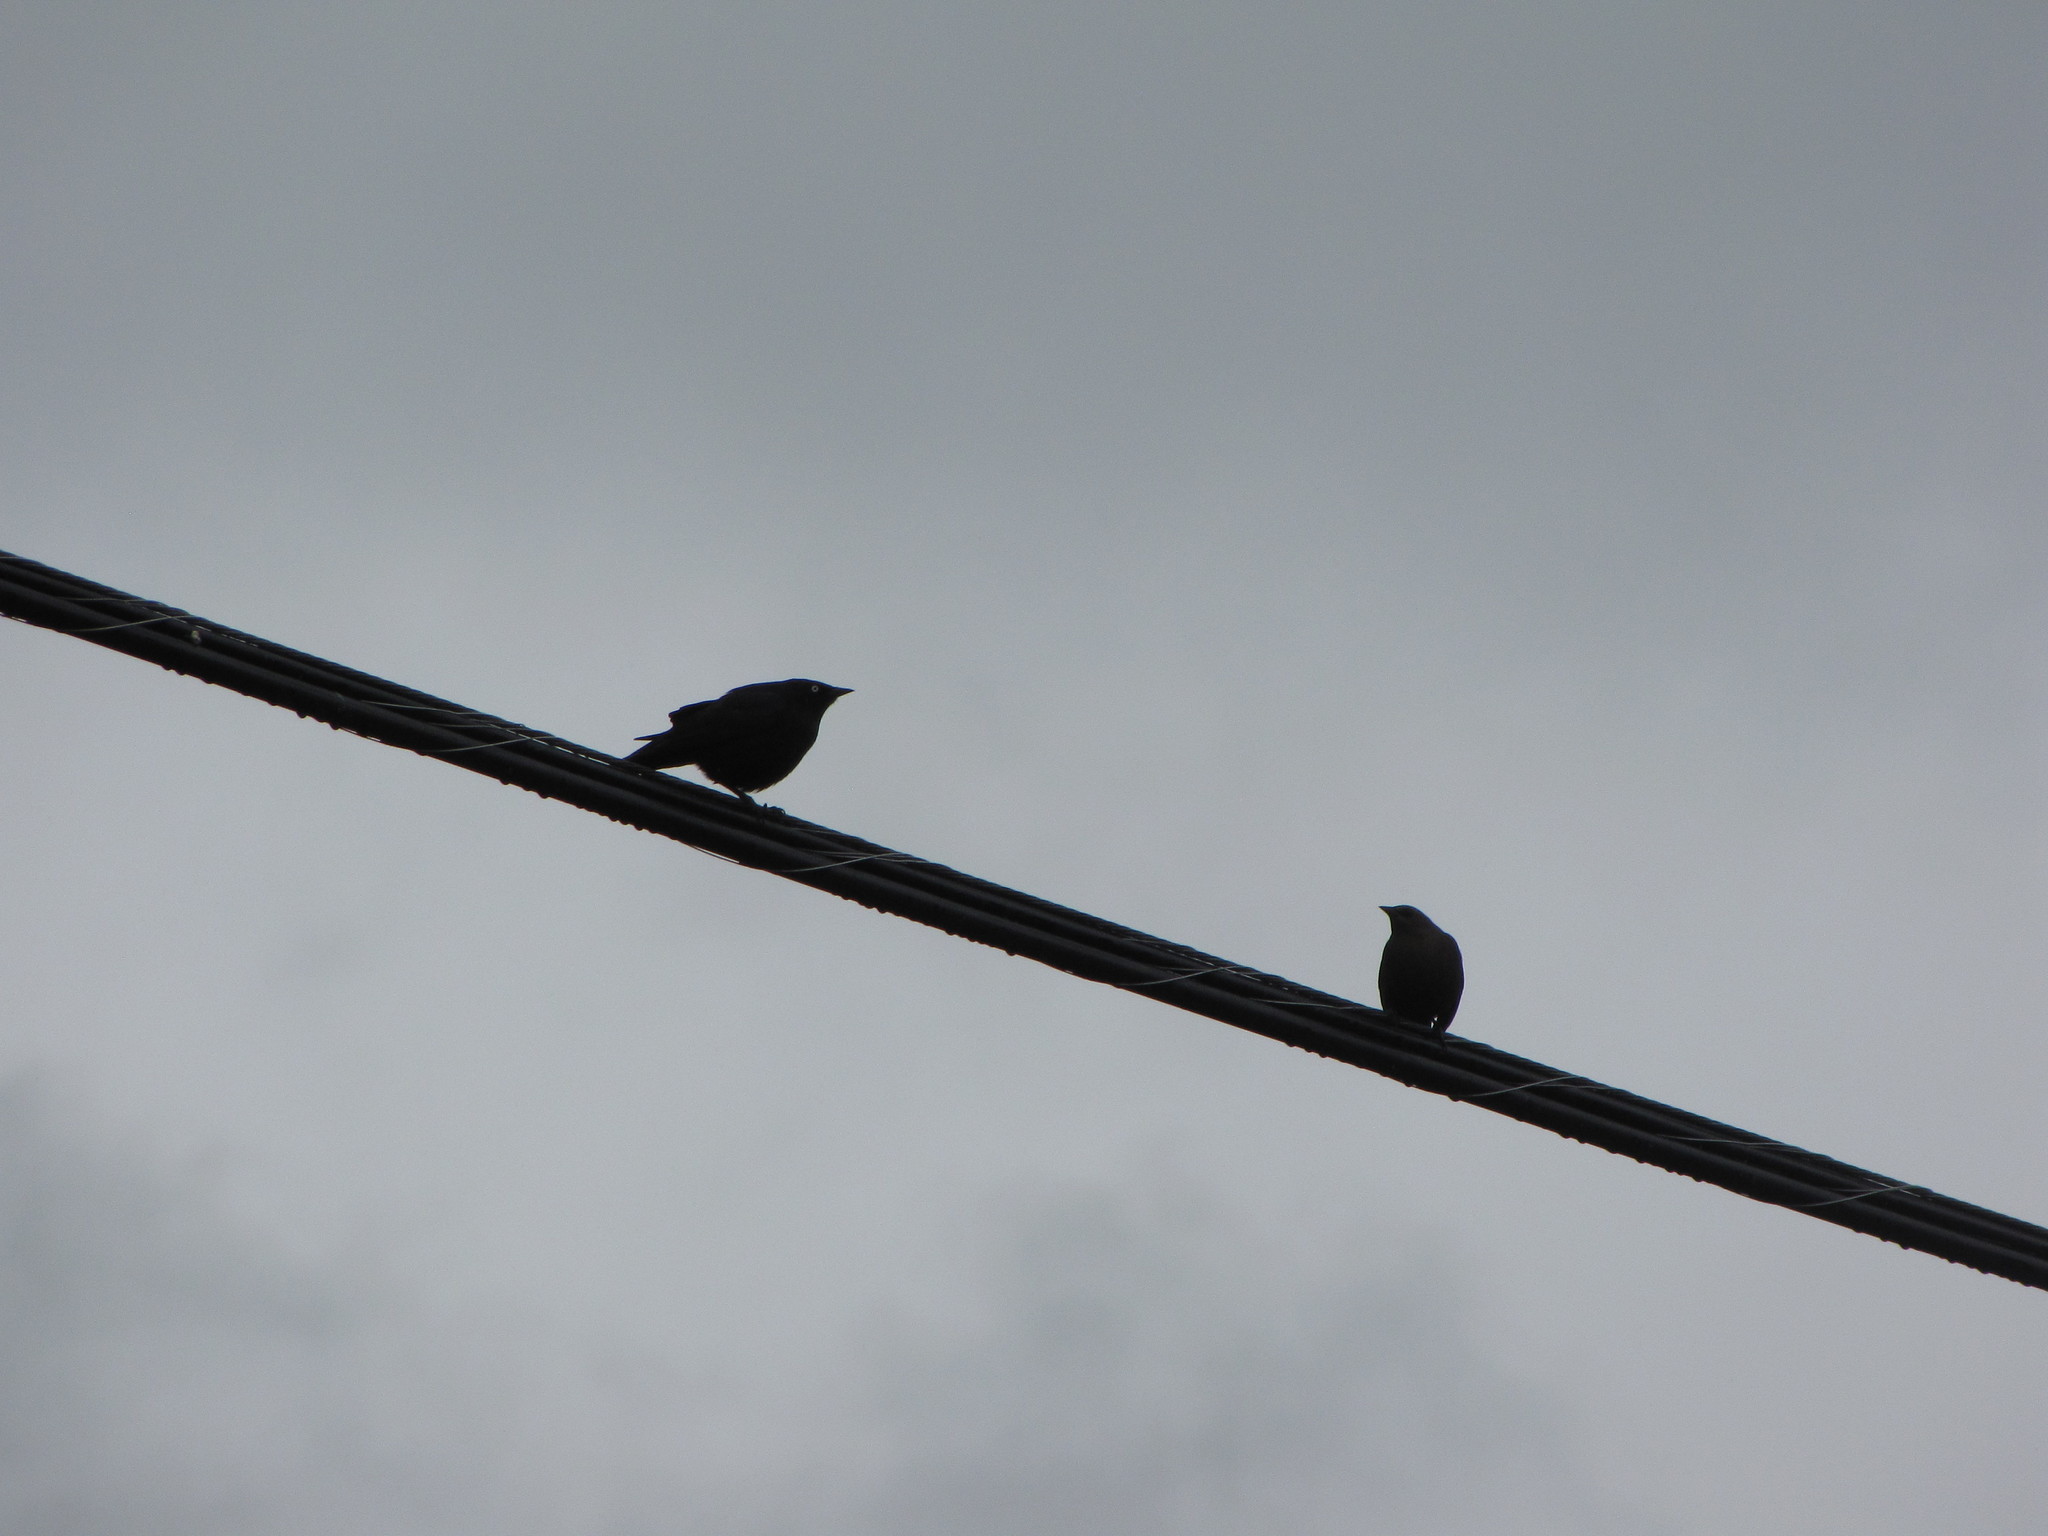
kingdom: Animalia
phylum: Chordata
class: Aves
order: Passeriformes
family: Icteridae
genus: Euphagus
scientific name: Euphagus cyanocephalus
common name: Brewer's blackbird
